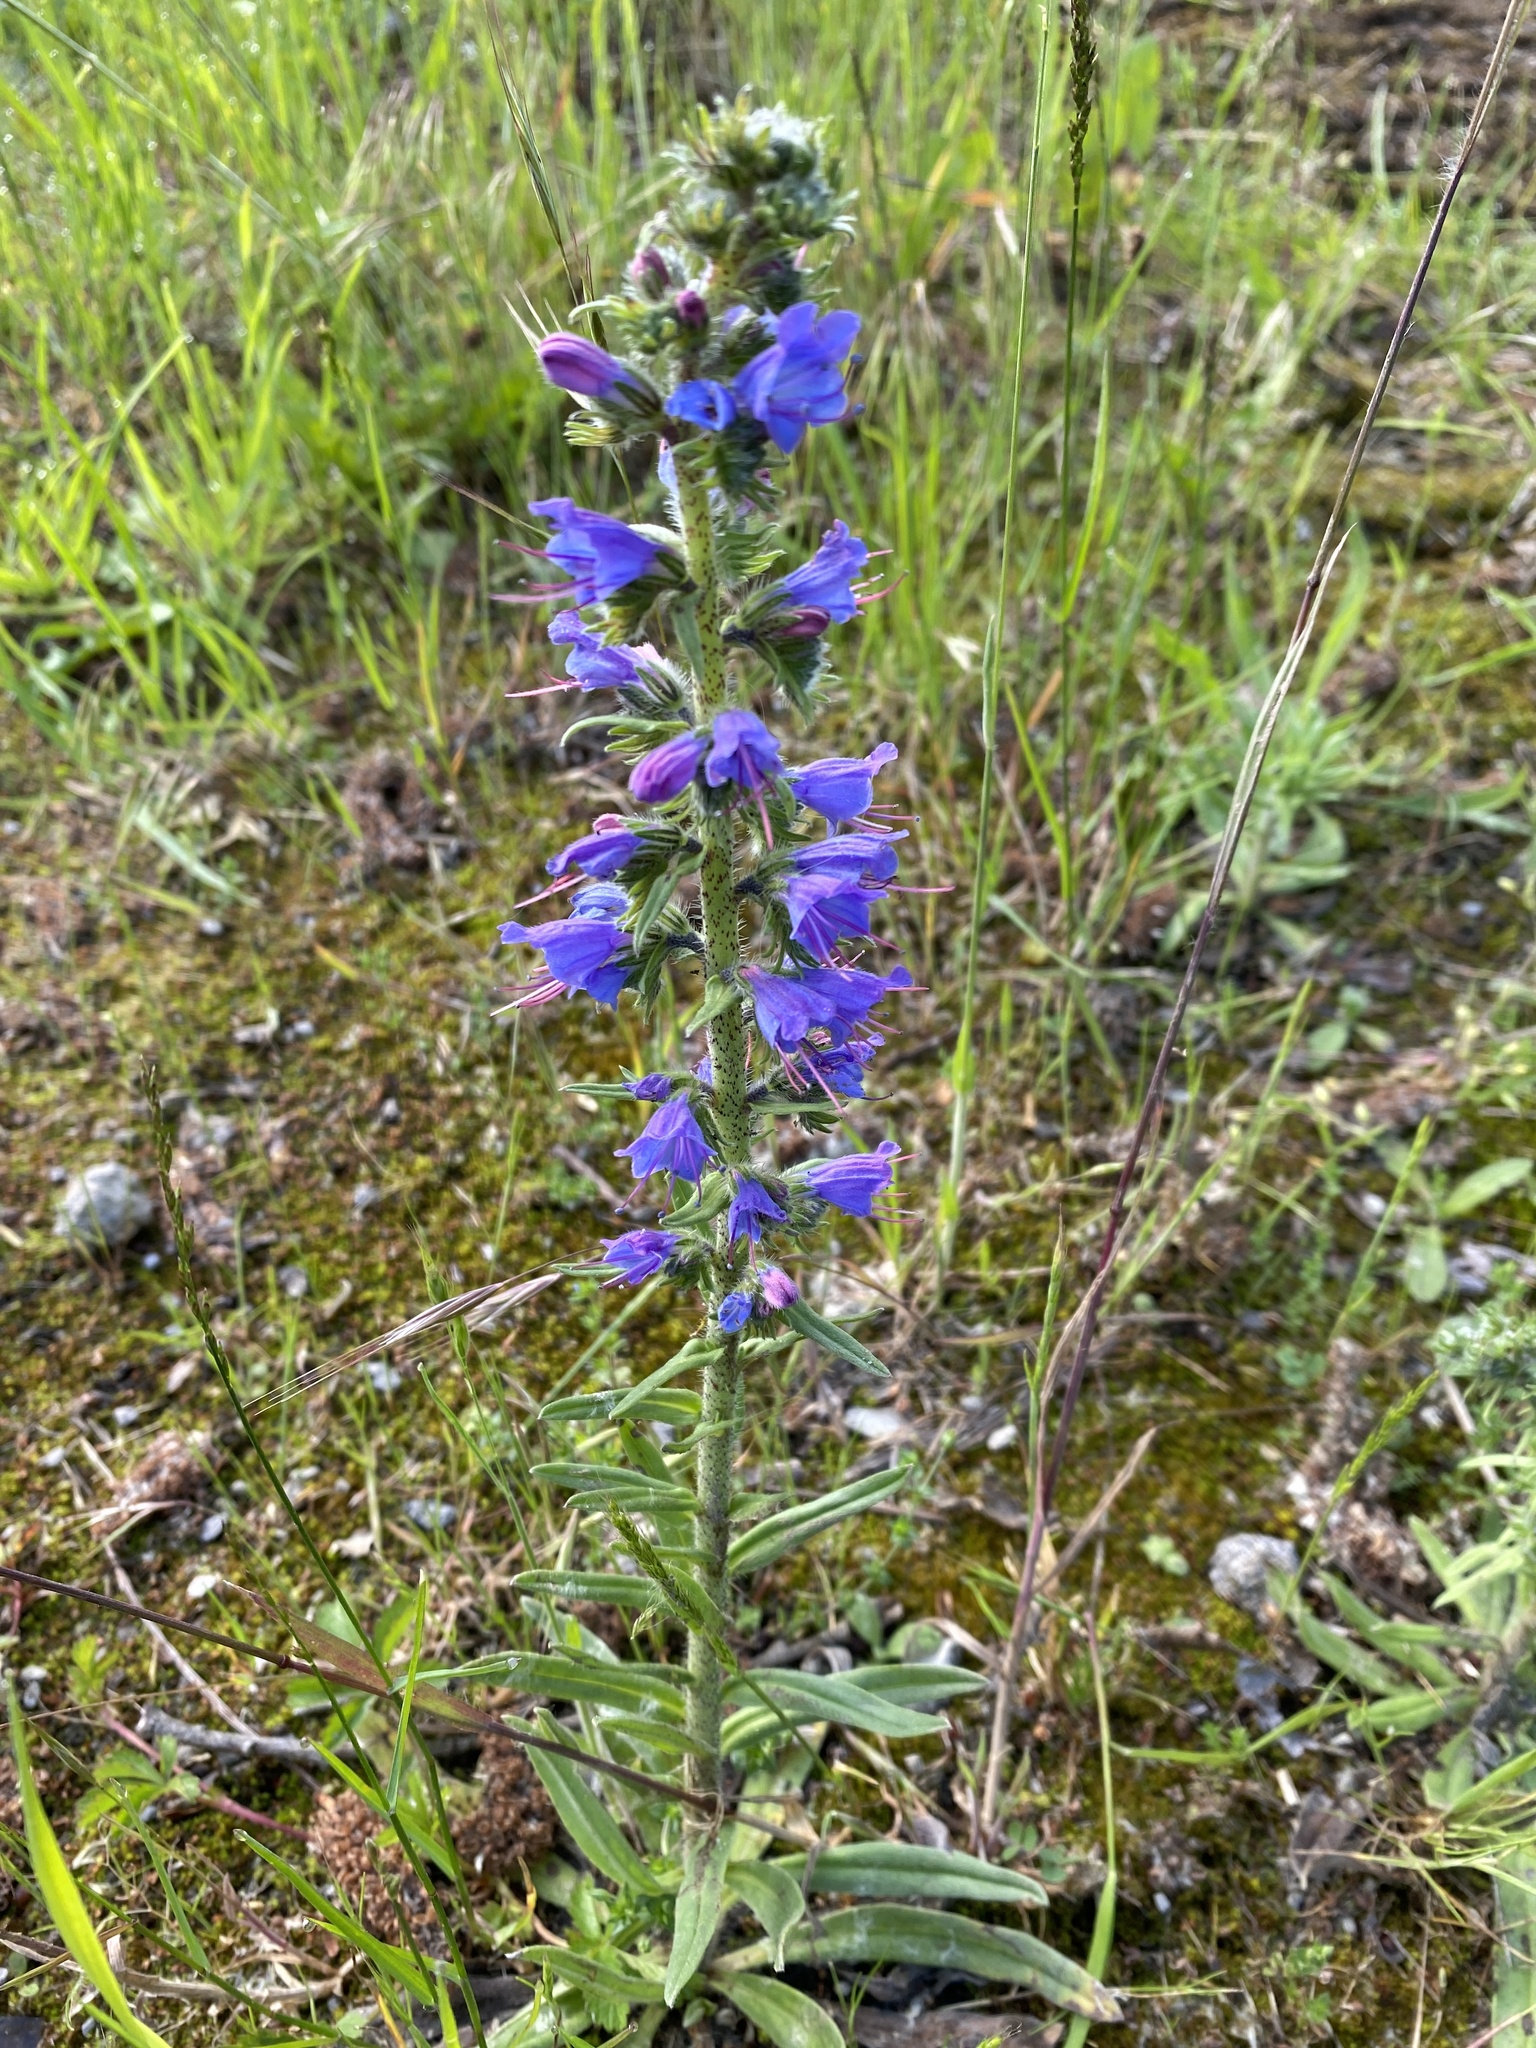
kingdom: Plantae
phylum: Tracheophyta
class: Magnoliopsida
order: Boraginales
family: Boraginaceae
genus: Echium
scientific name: Echium vulgare
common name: Common viper's bugloss
